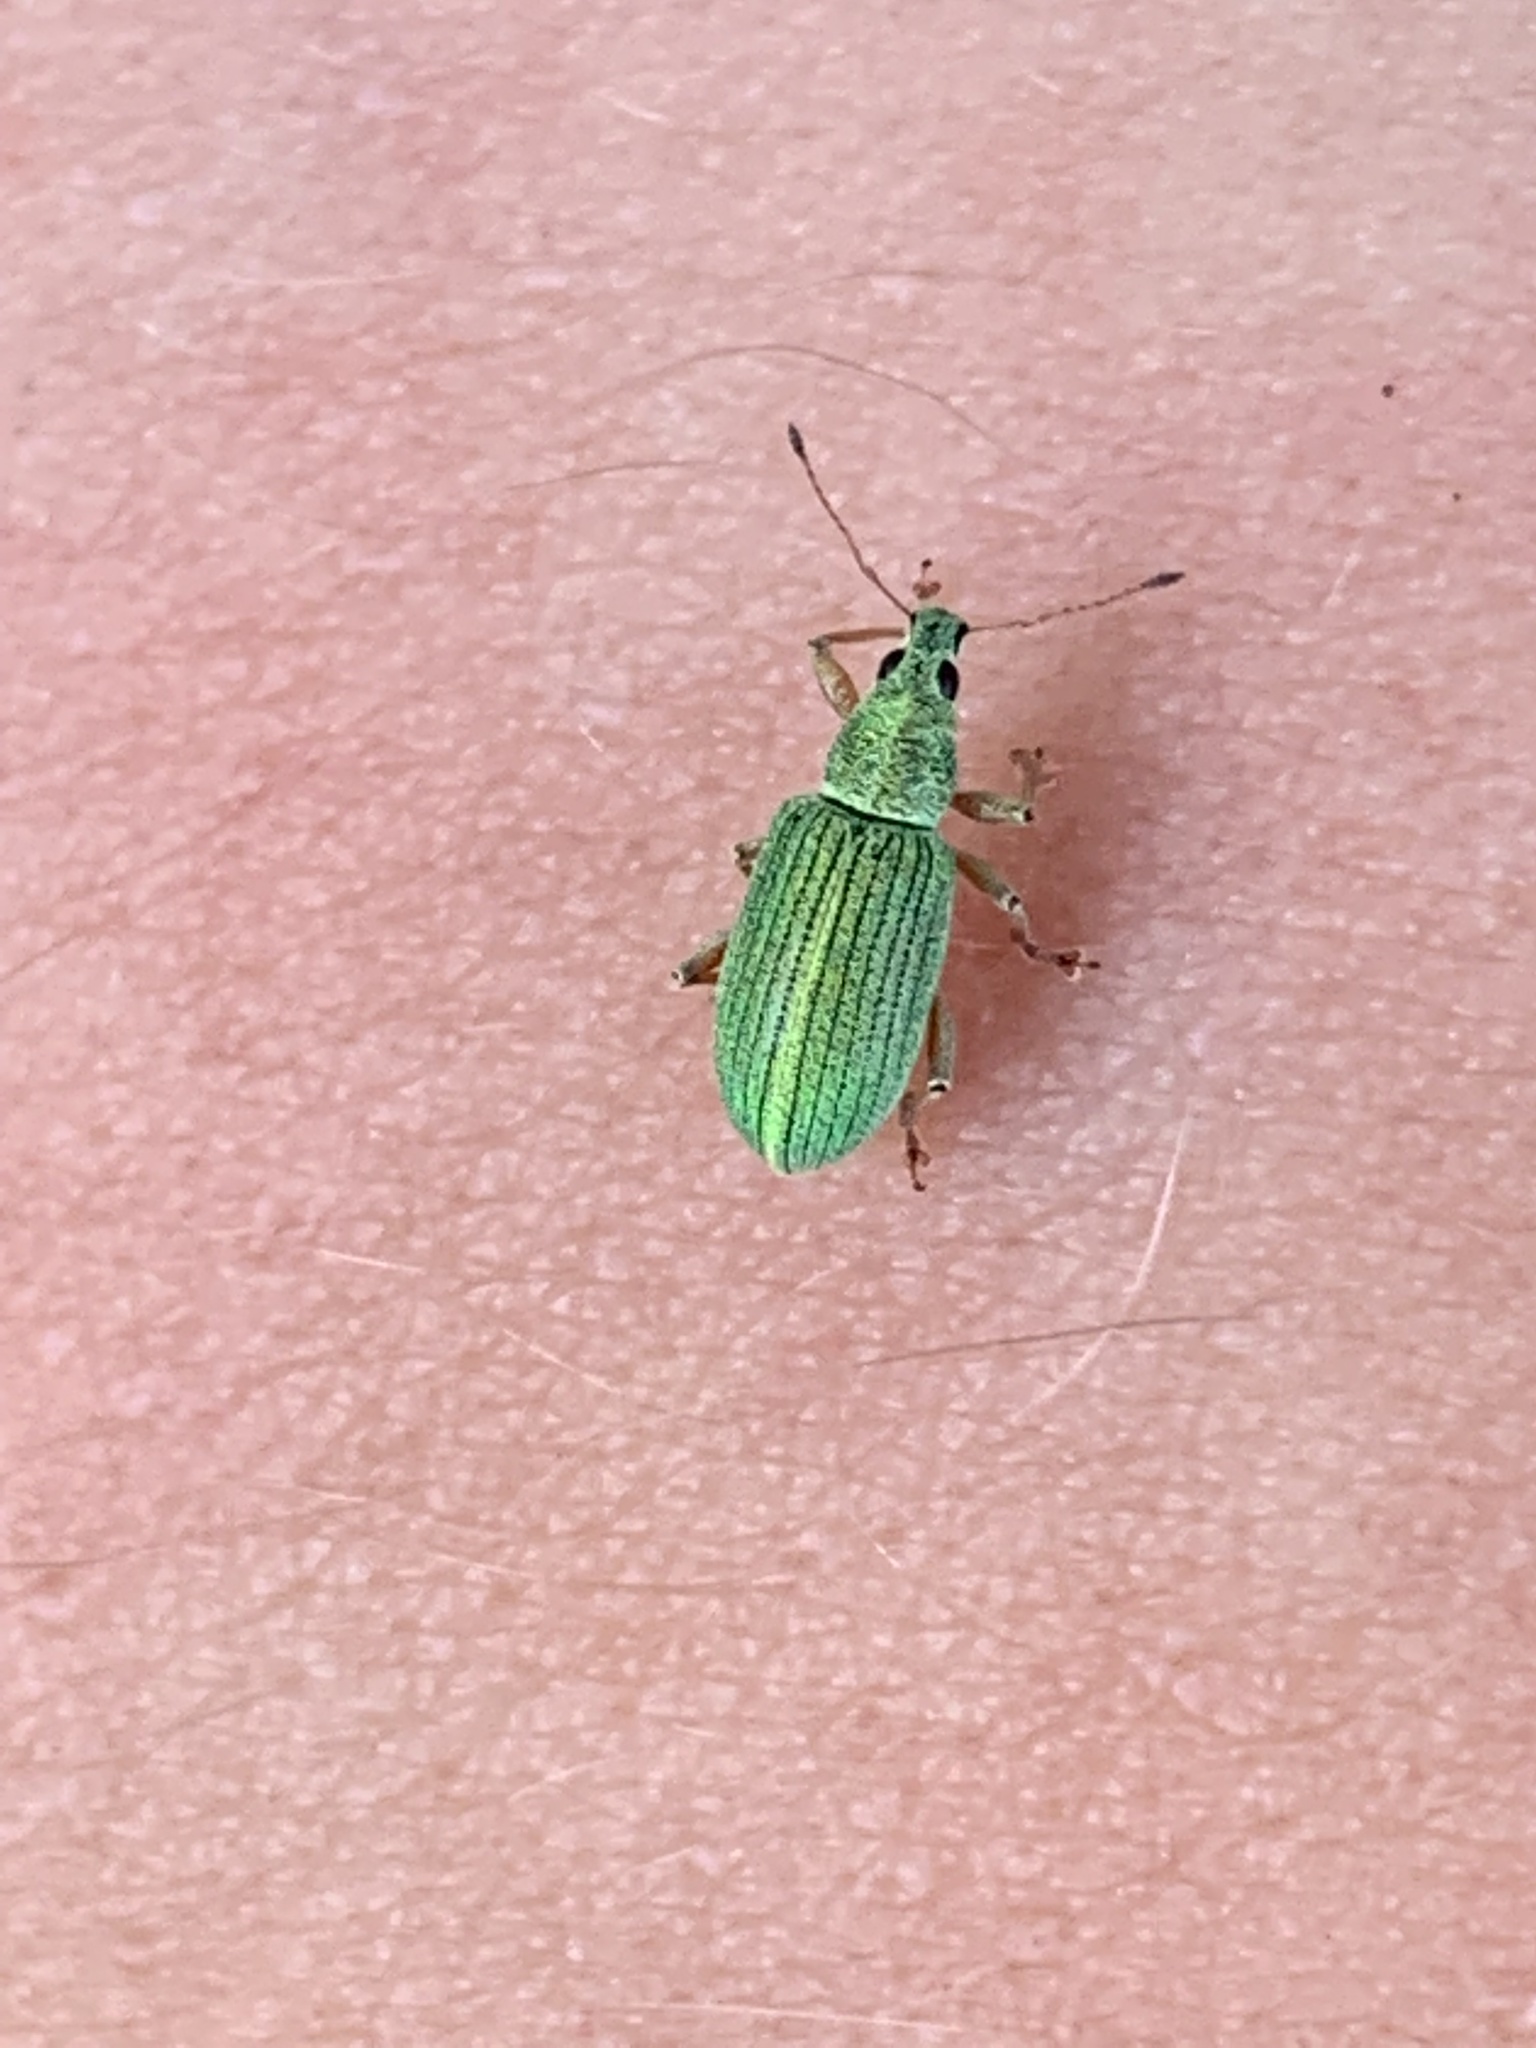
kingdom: Animalia
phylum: Arthropoda
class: Insecta
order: Coleoptera
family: Curculionidae
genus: Polydrusus
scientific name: Polydrusus formosus
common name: Weevil
